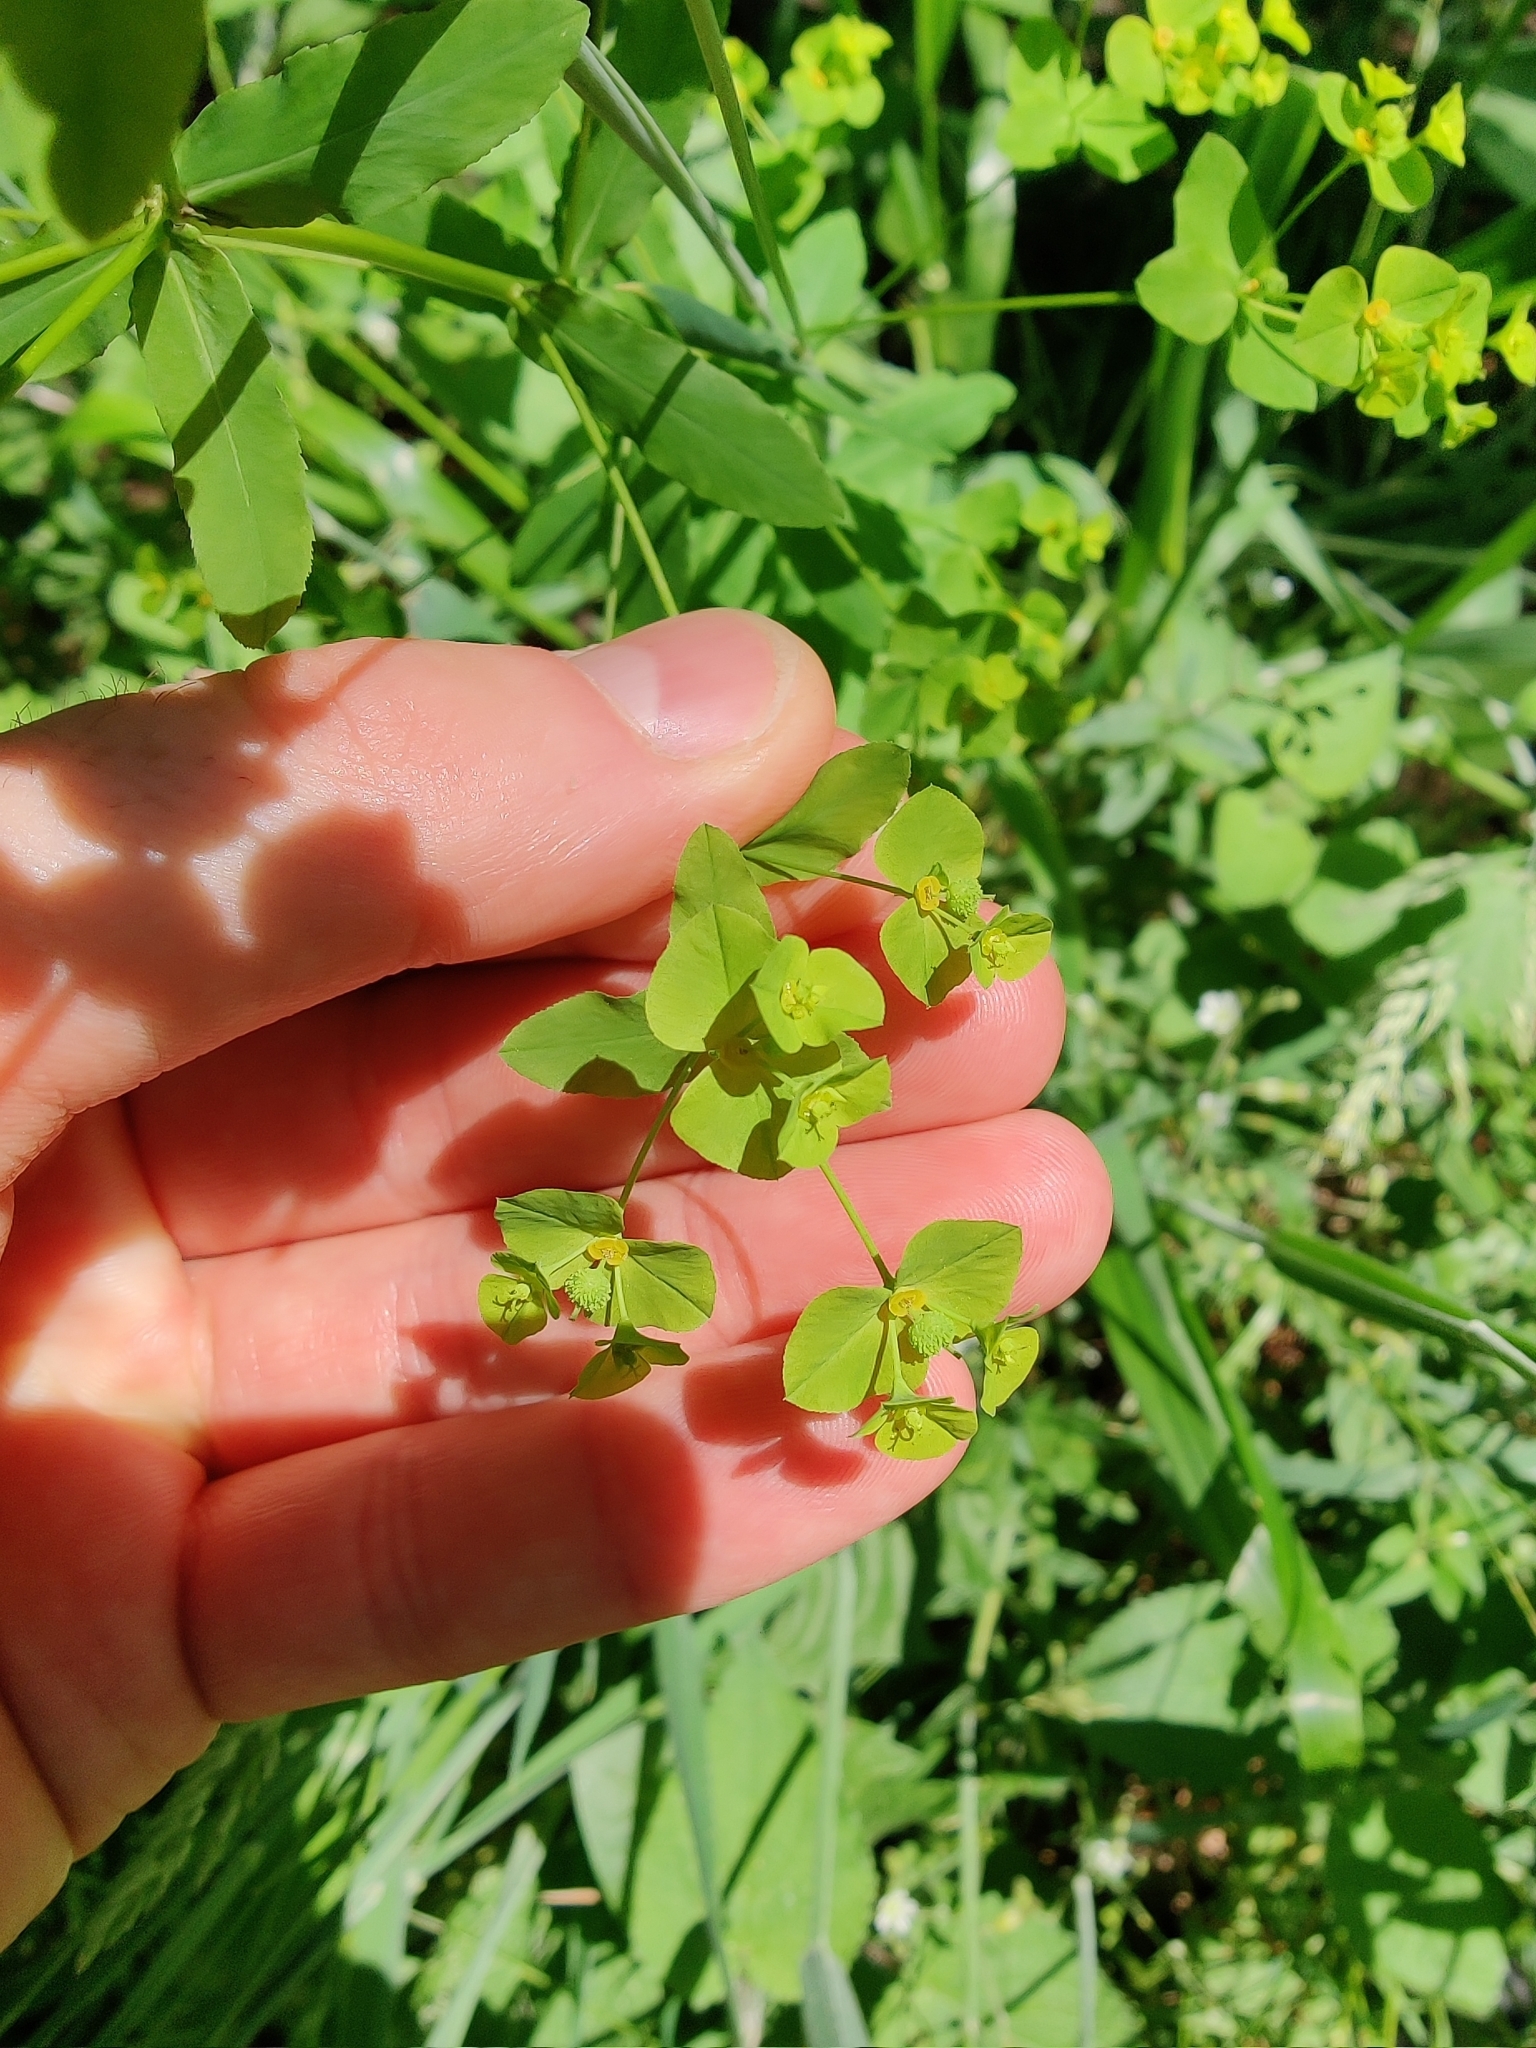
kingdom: Plantae
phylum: Tracheophyta
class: Magnoliopsida
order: Malpighiales
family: Euphorbiaceae
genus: Euphorbia
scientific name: Euphorbia stricta
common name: Upright spurge
